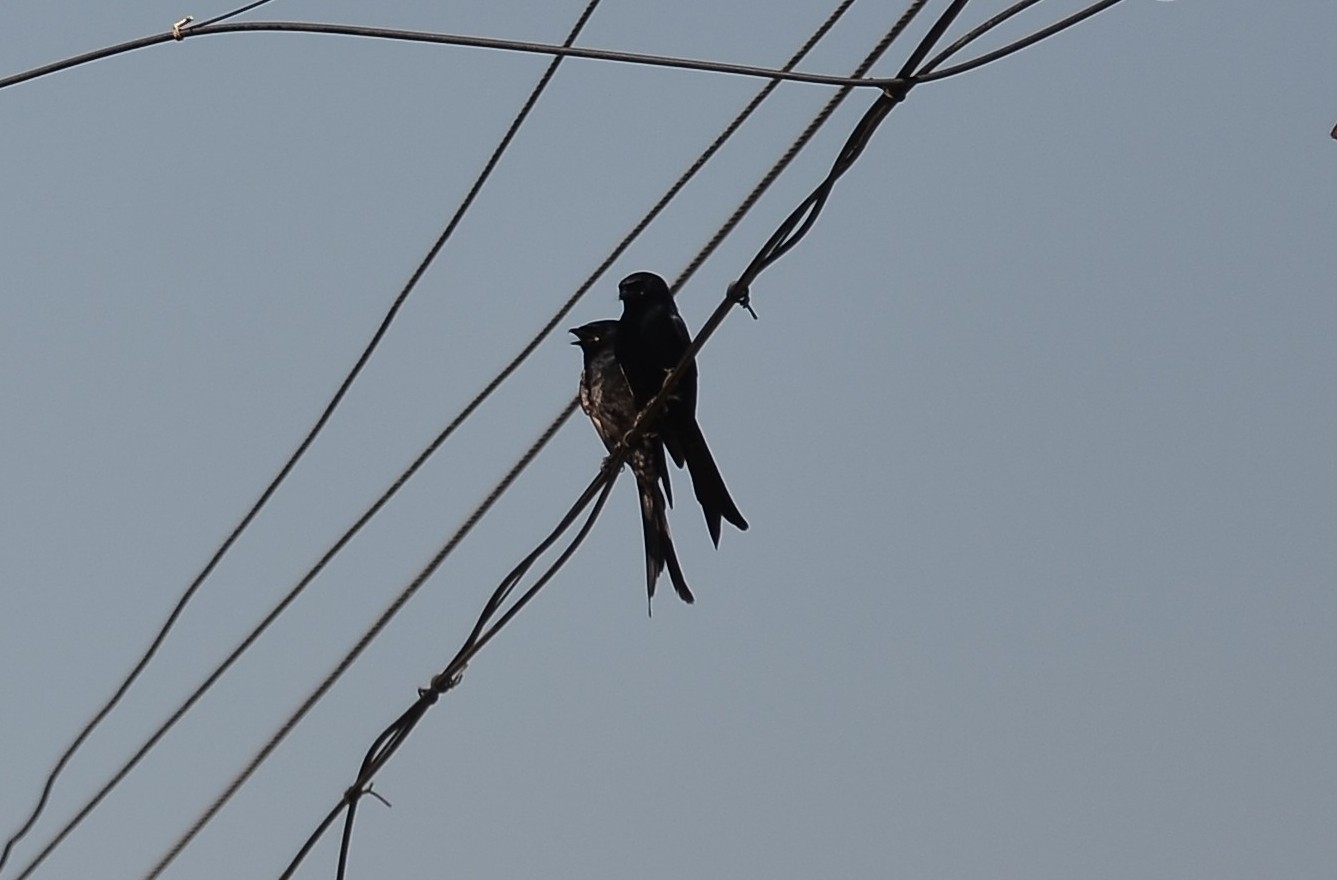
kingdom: Animalia
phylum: Chordata
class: Aves
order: Passeriformes
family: Dicruridae
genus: Dicrurus
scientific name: Dicrurus macrocercus
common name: Black drongo
